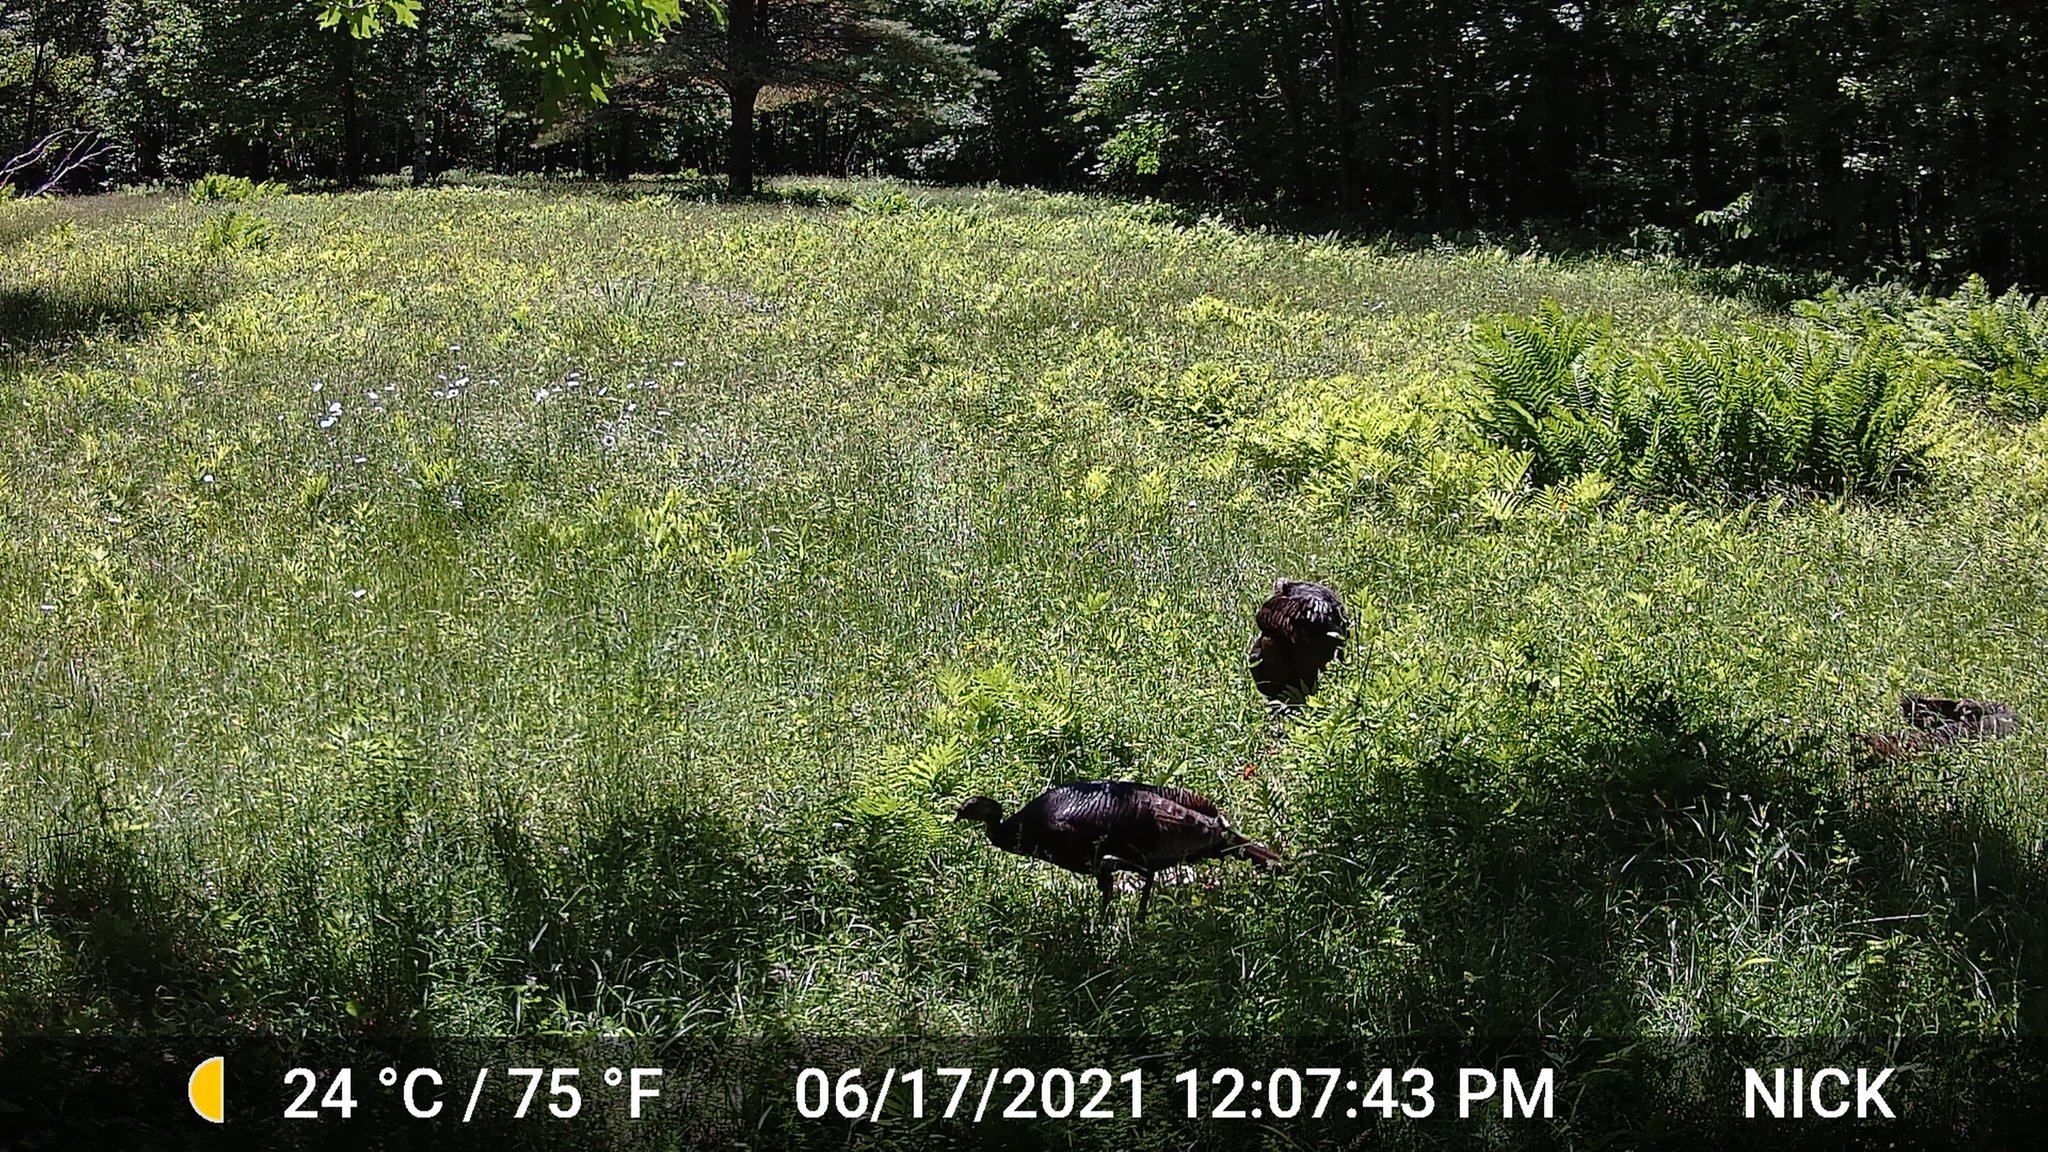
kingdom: Animalia
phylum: Chordata
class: Aves
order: Galliformes
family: Phasianidae
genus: Meleagris
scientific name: Meleagris gallopavo
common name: Wild turkey
